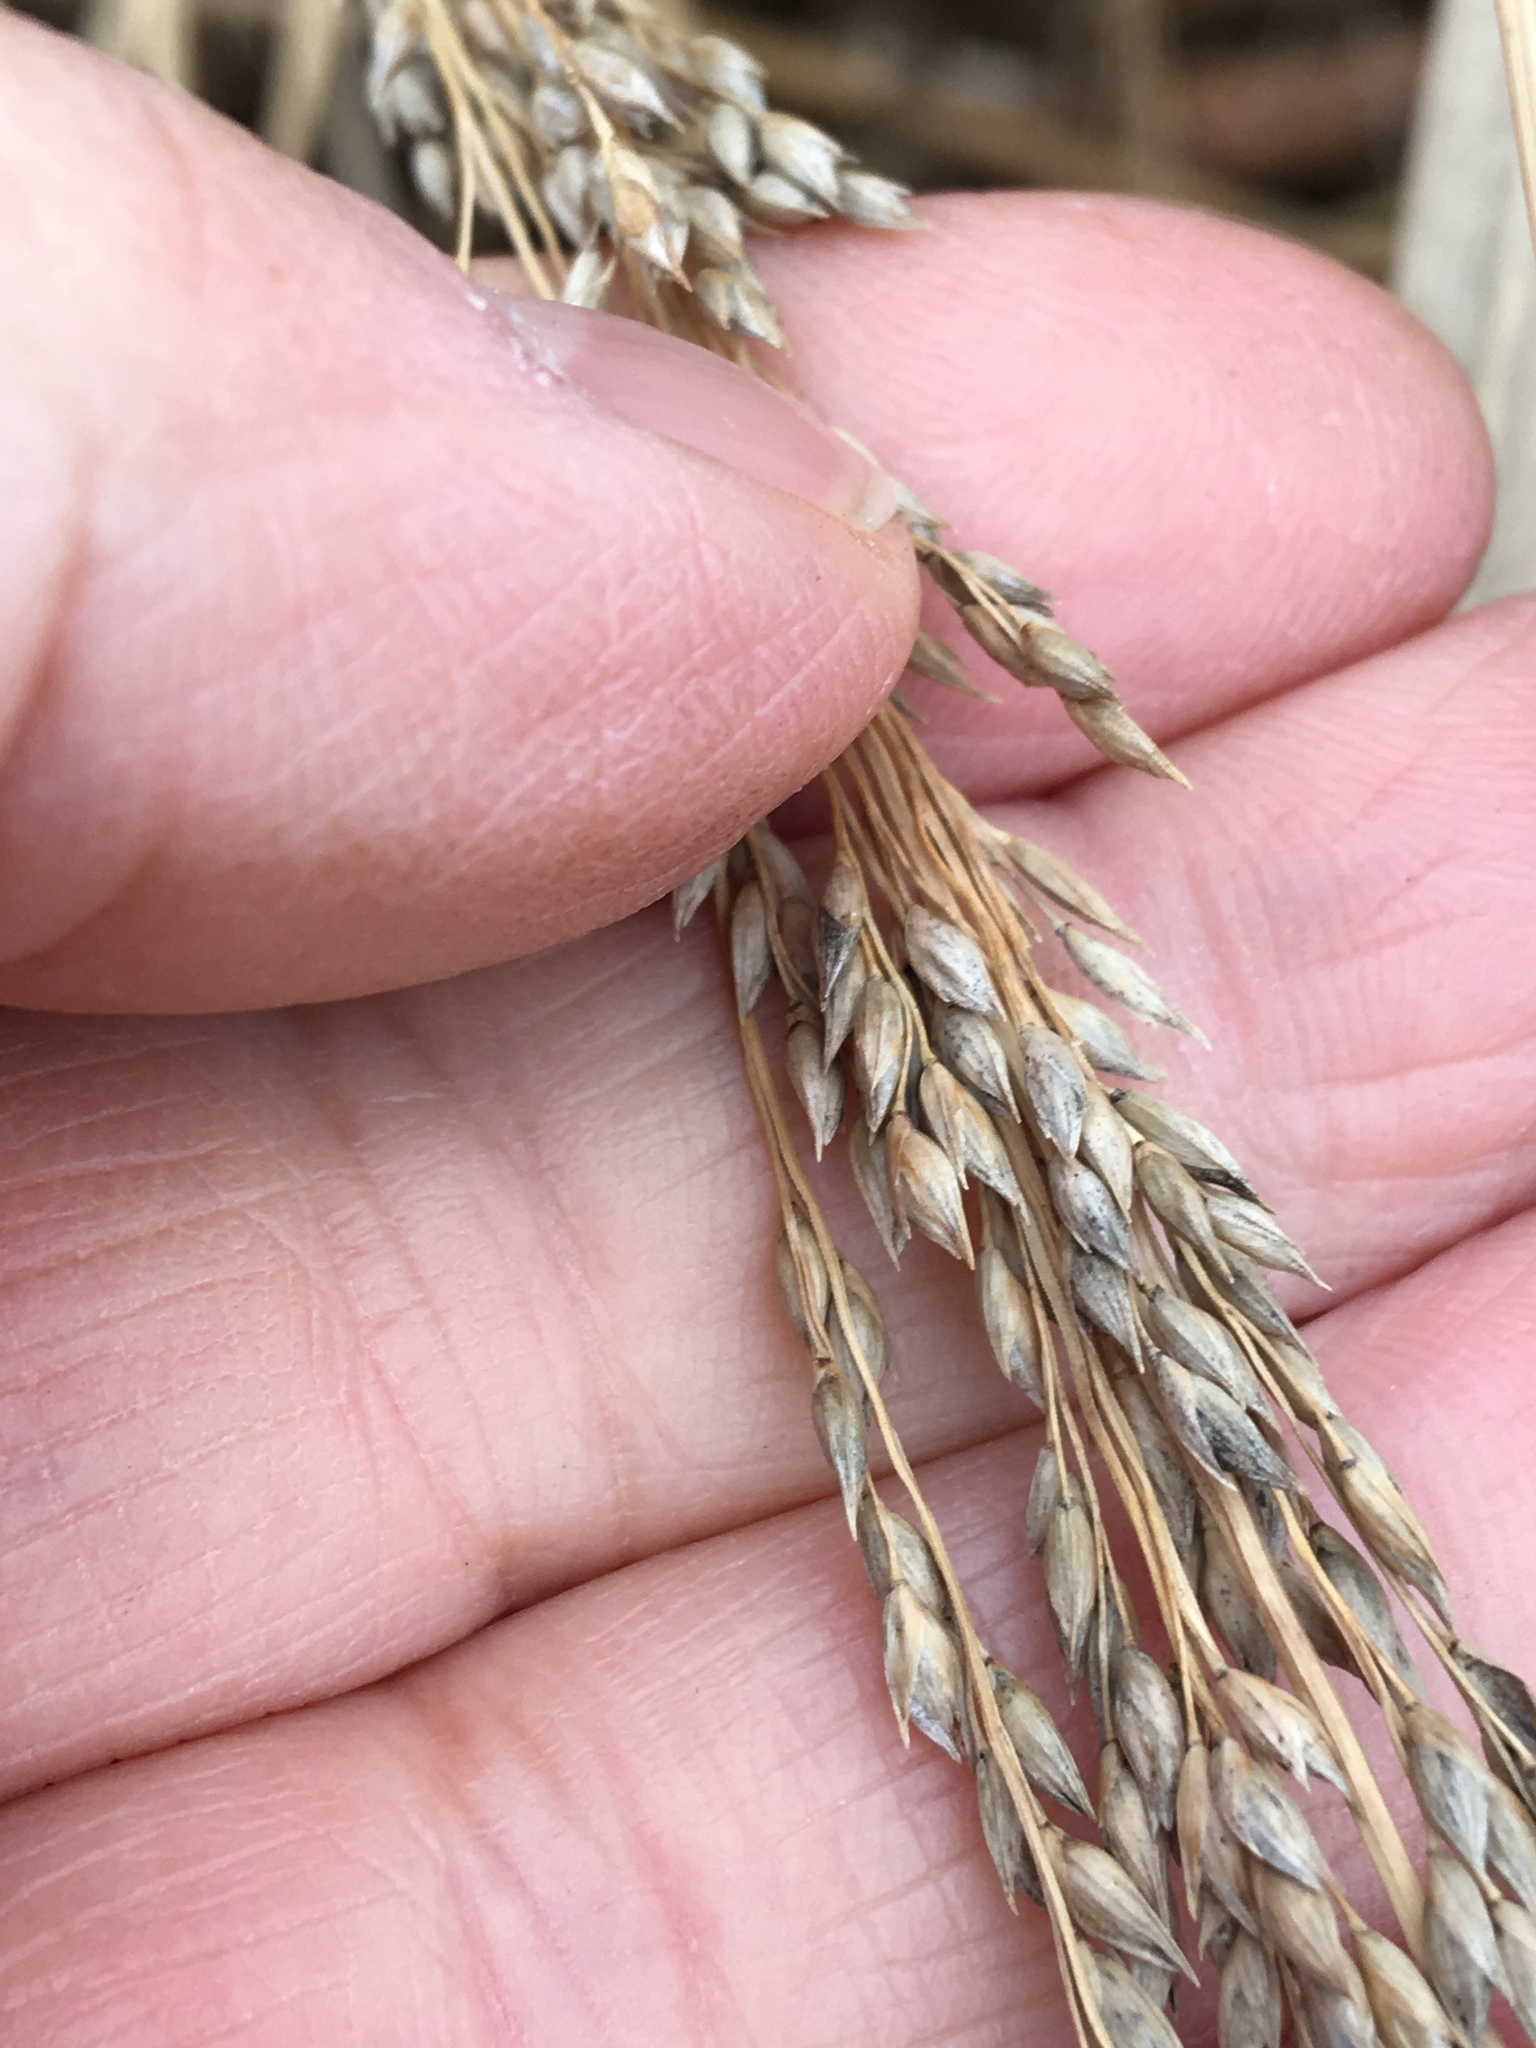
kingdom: Plantae
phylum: Tracheophyta
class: Liliopsida
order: Poales
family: Poaceae
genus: Panicum
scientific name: Panicum amarum
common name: Bitter panicum
